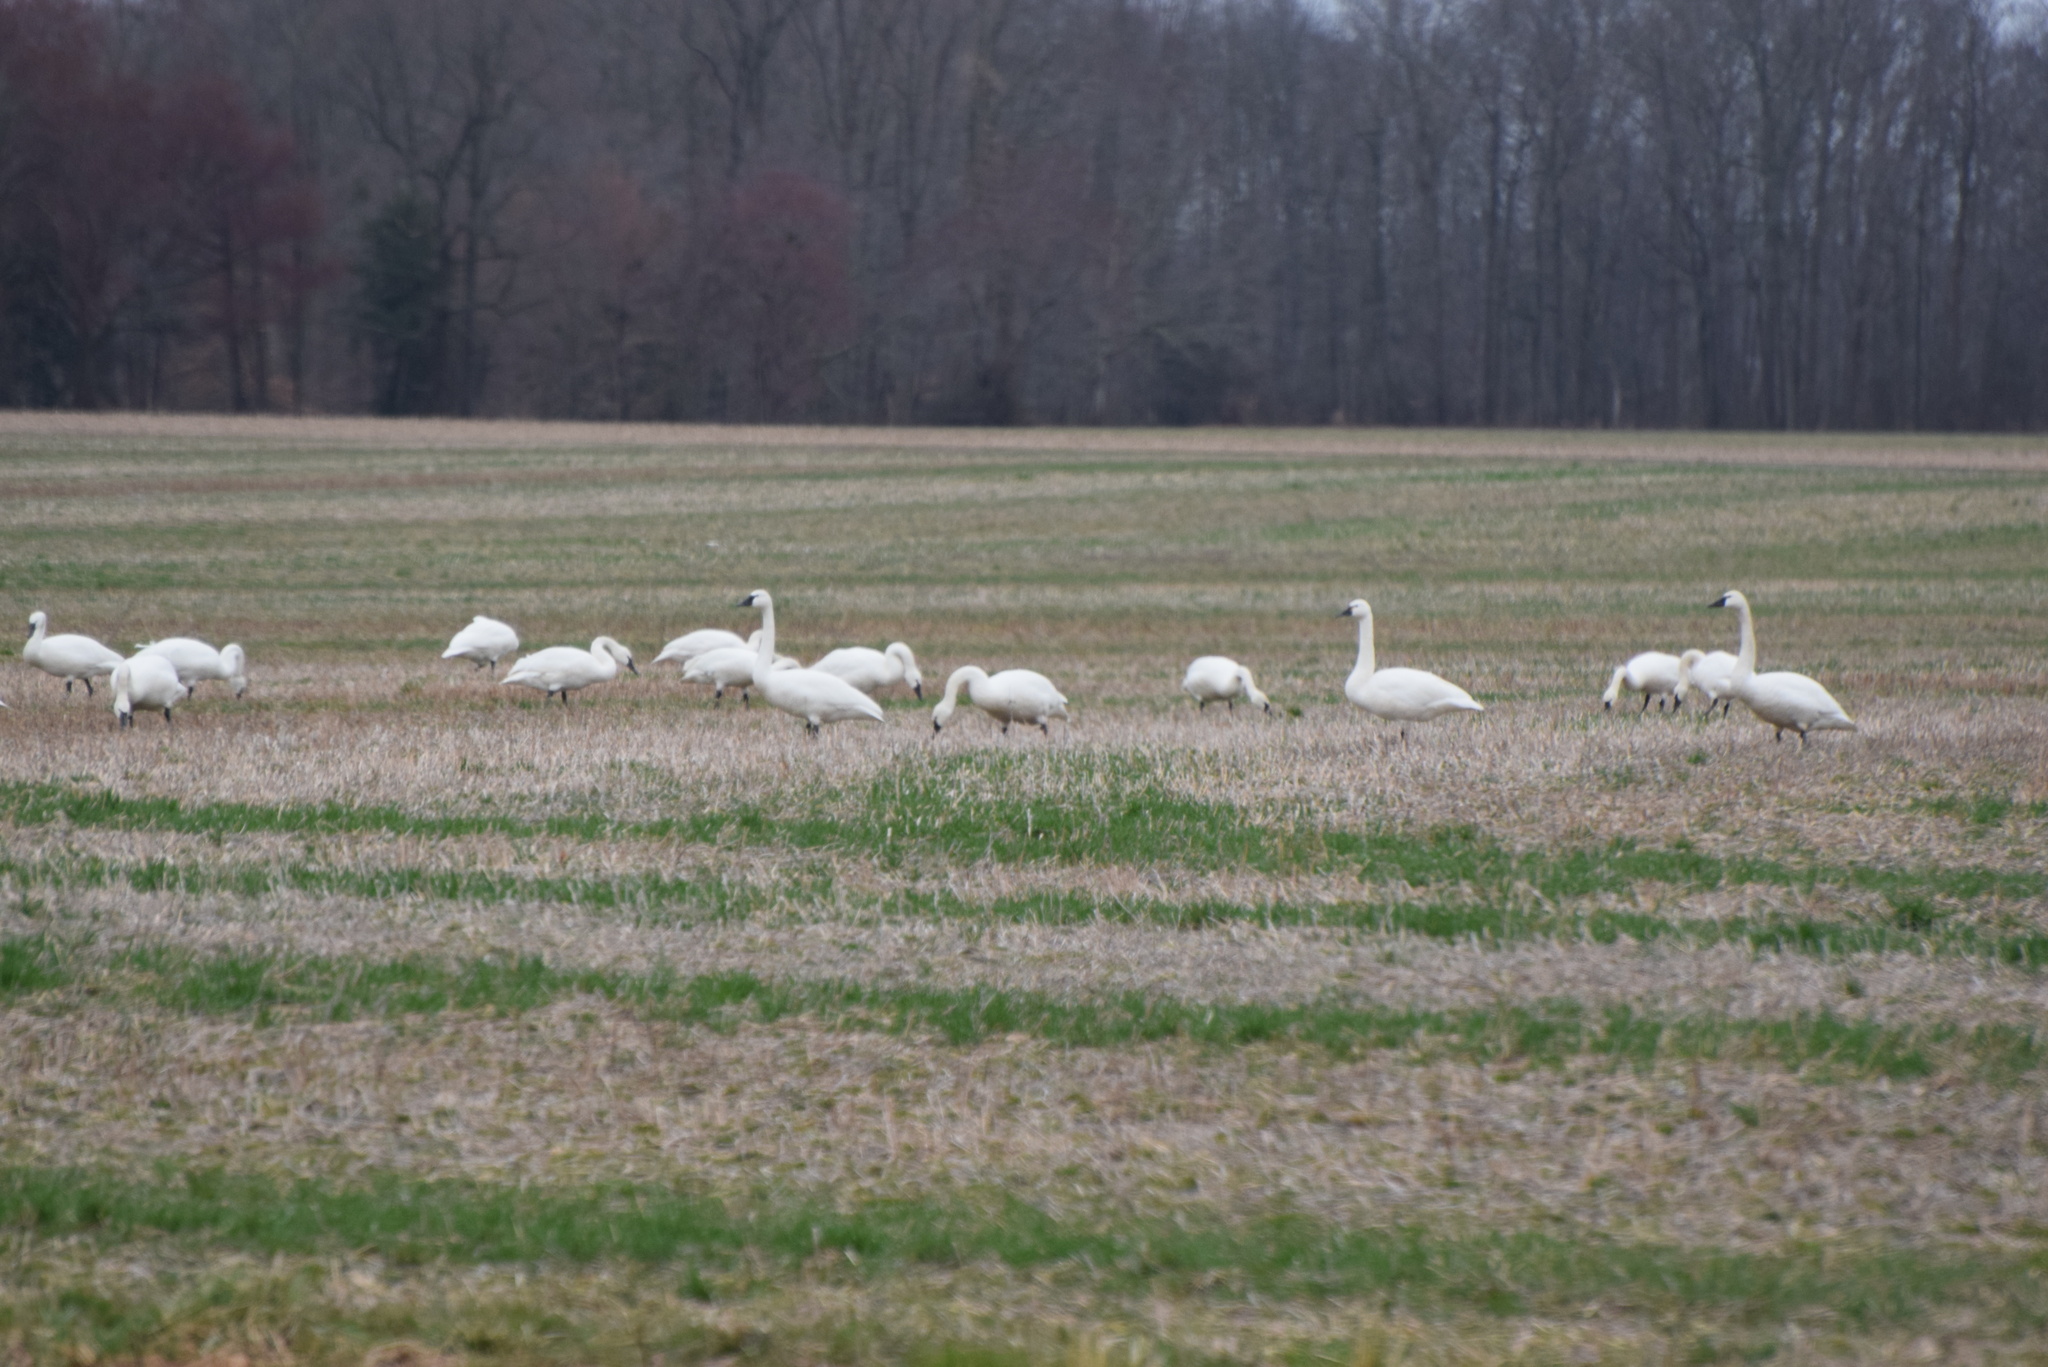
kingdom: Animalia
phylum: Chordata
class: Aves
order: Anseriformes
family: Anatidae
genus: Cygnus
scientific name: Cygnus columbianus
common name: Tundra swan
